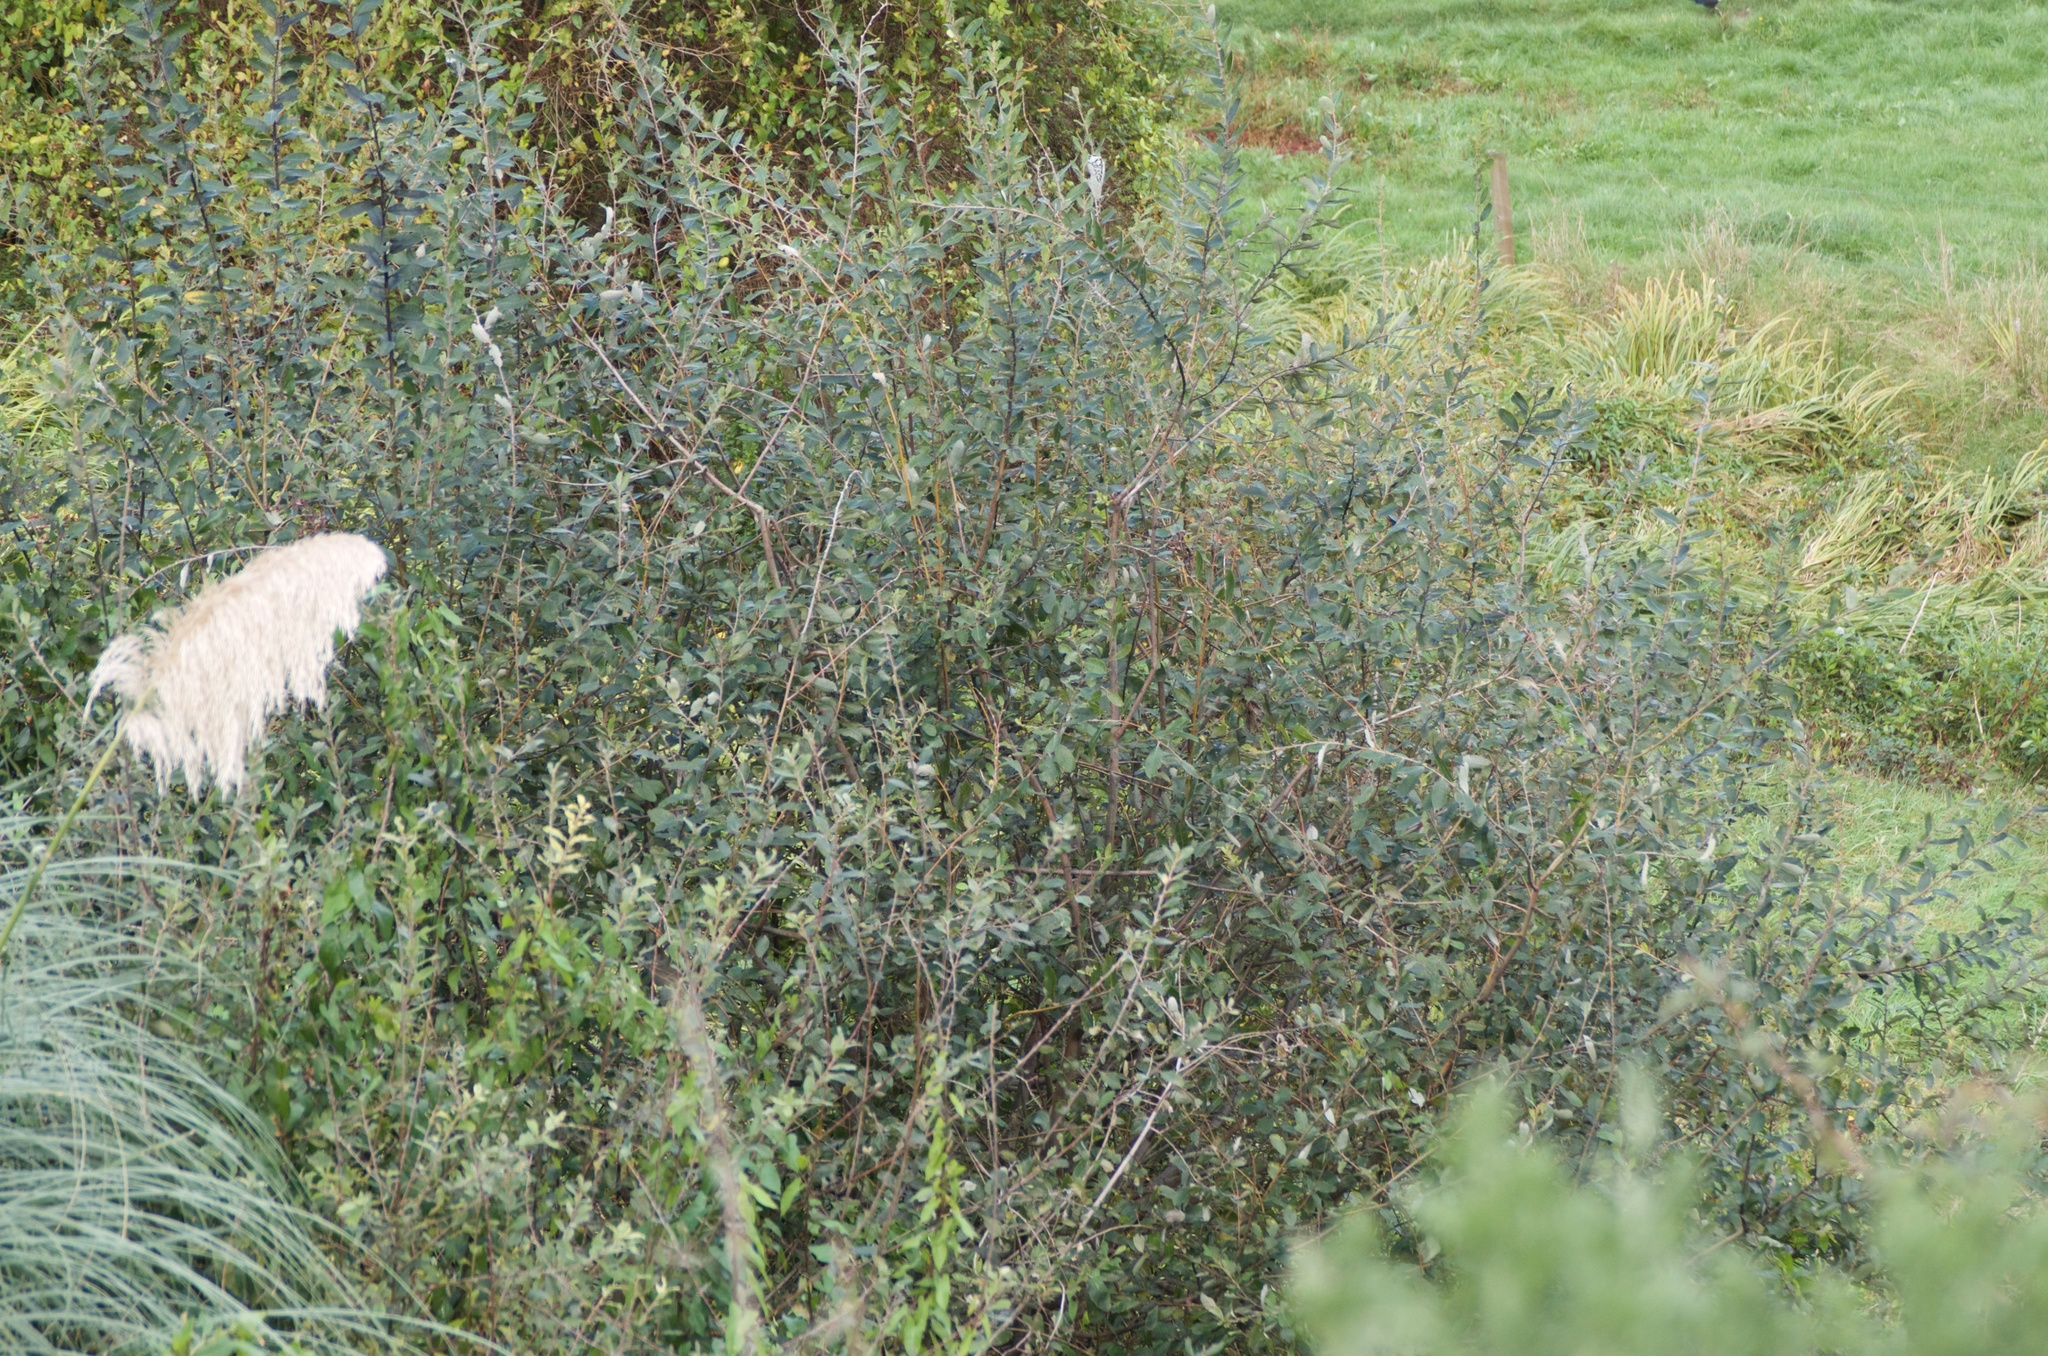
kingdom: Plantae
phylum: Tracheophyta
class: Magnoliopsida
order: Malpighiales
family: Salicaceae
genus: Salix
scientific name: Salix cinerea
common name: Common sallow
